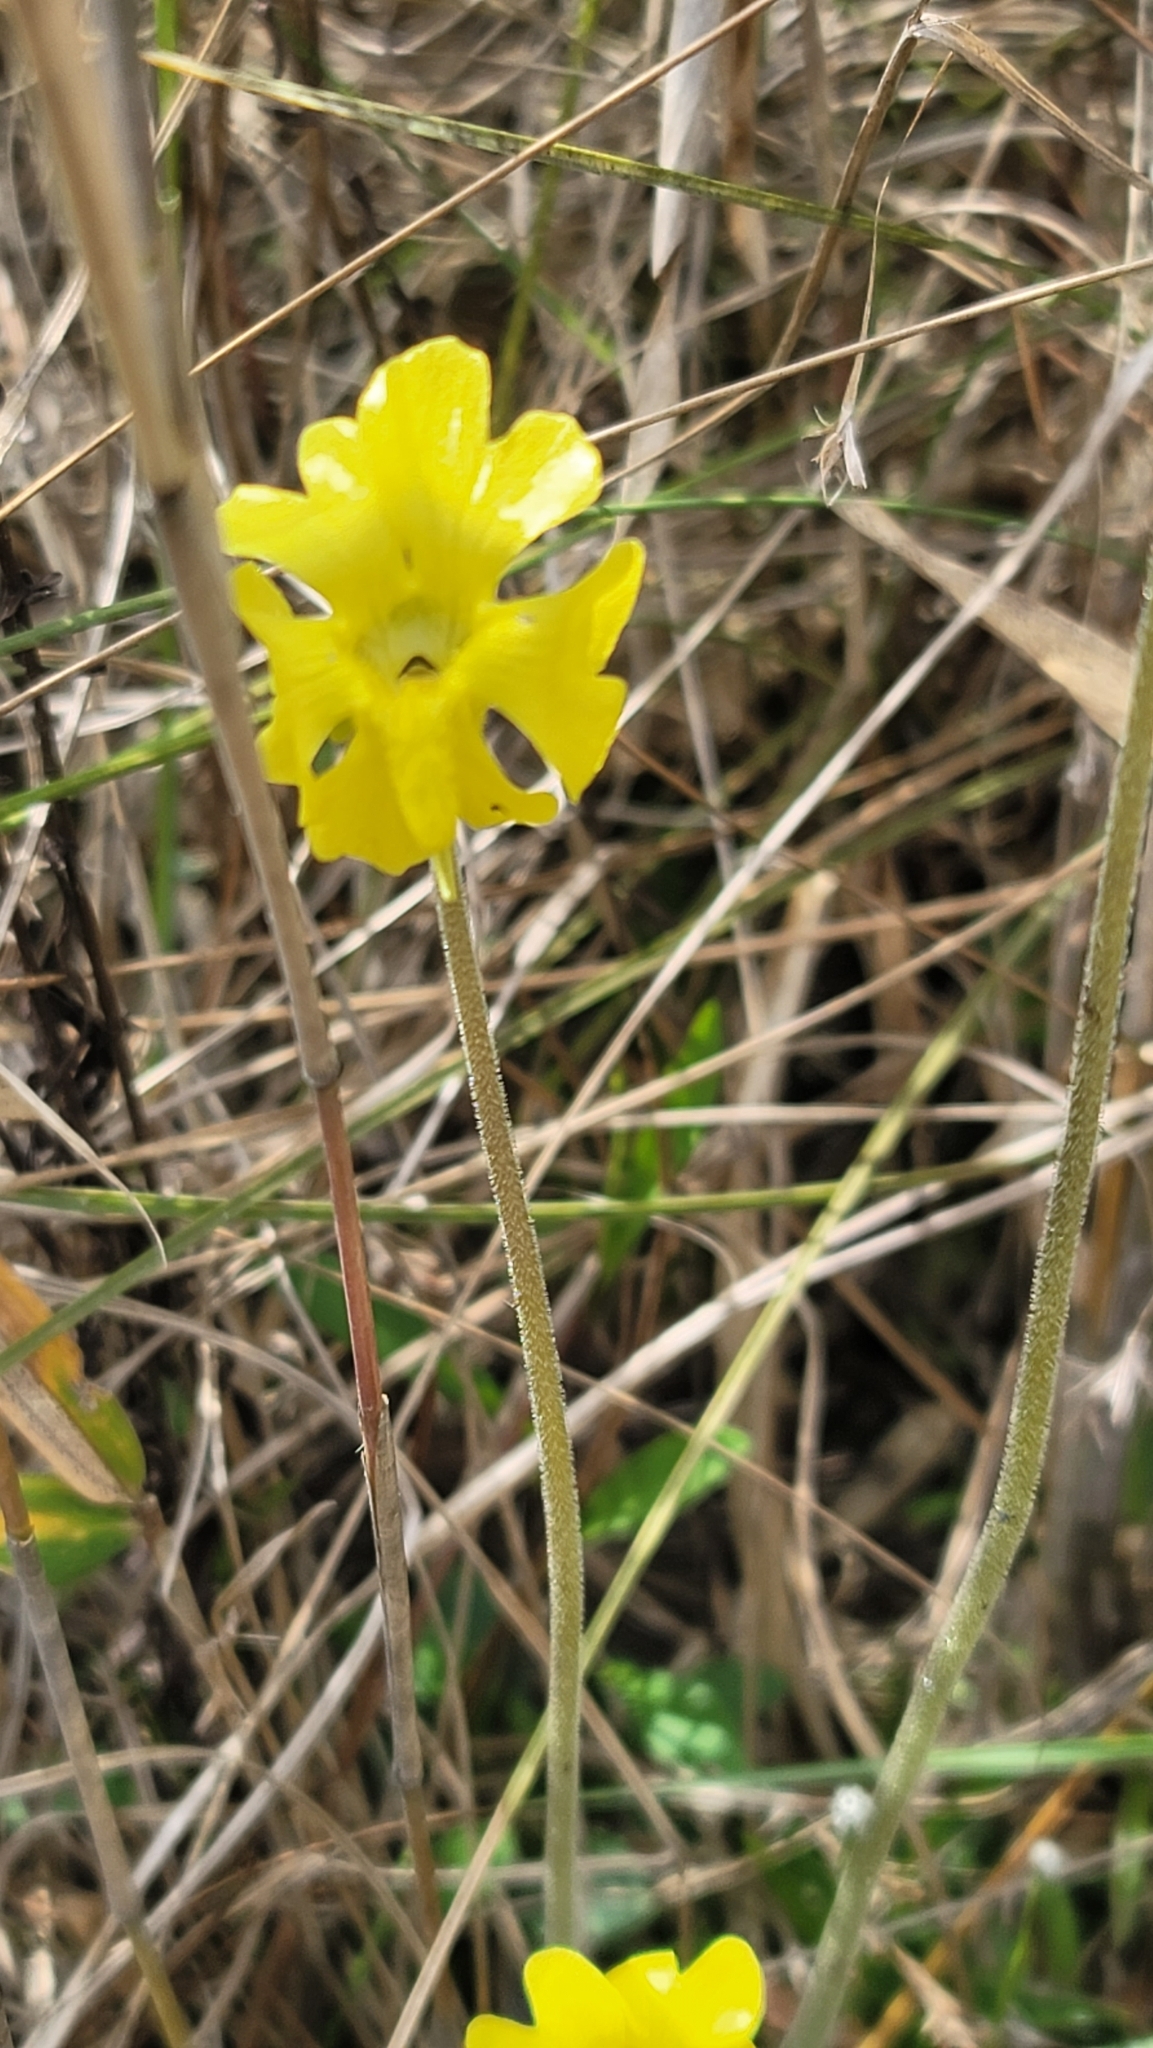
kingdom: Plantae
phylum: Tracheophyta
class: Magnoliopsida
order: Lamiales
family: Lentibulariaceae
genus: Pinguicula
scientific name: Pinguicula lutea
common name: Yellow butterwort
